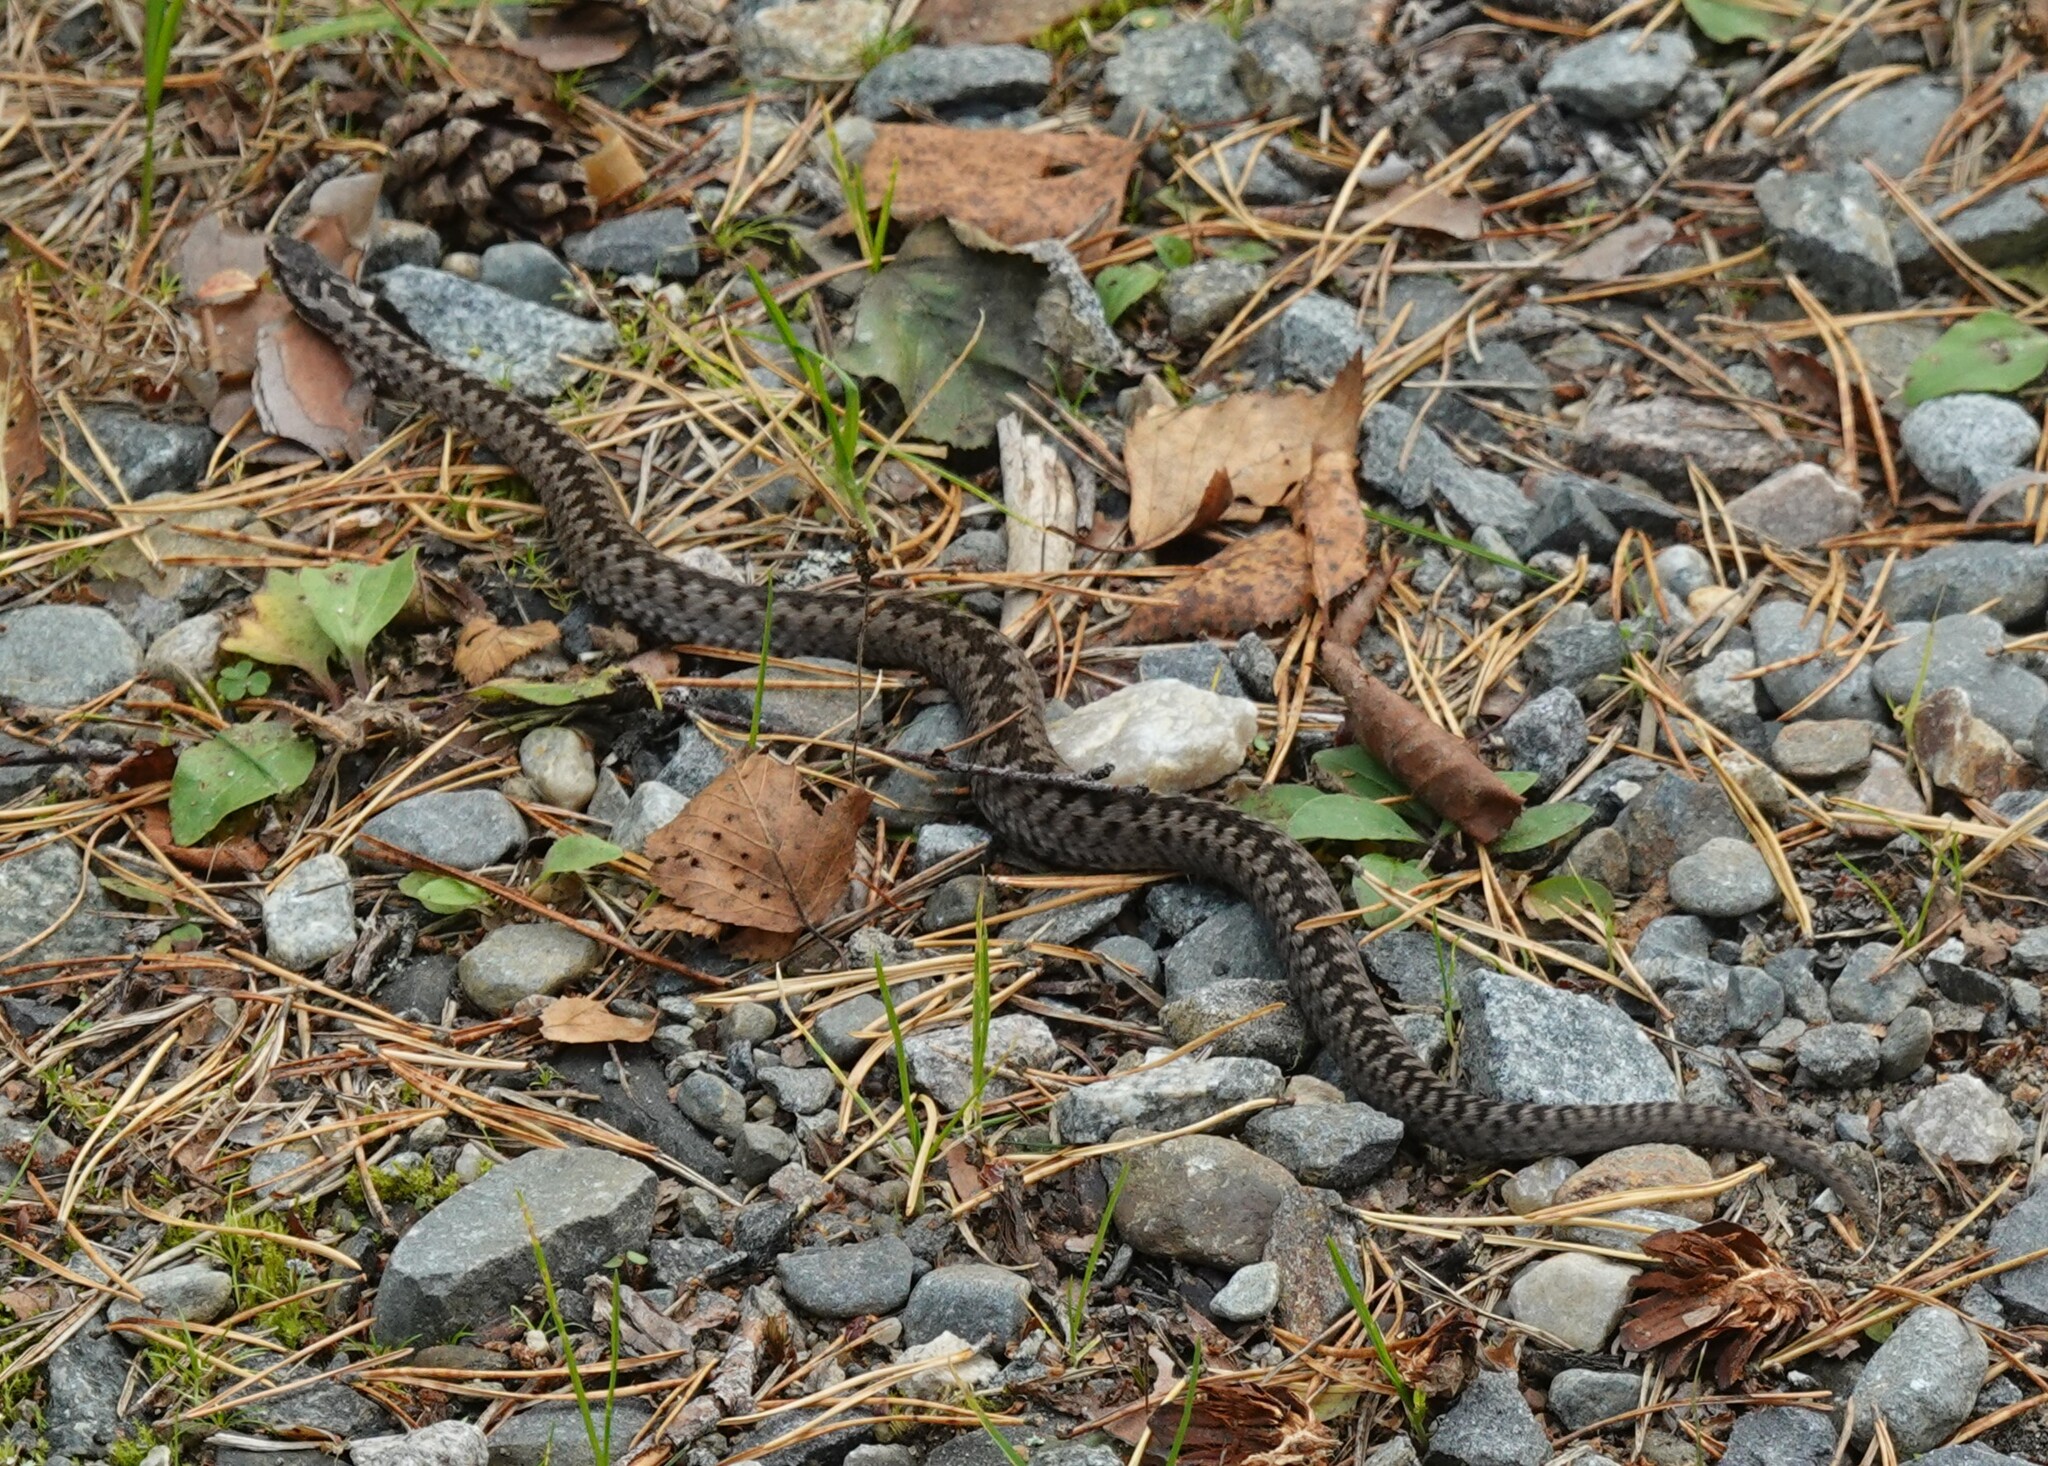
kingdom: Animalia
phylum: Chordata
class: Squamata
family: Viperidae
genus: Vipera
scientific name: Vipera berus
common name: Adder
